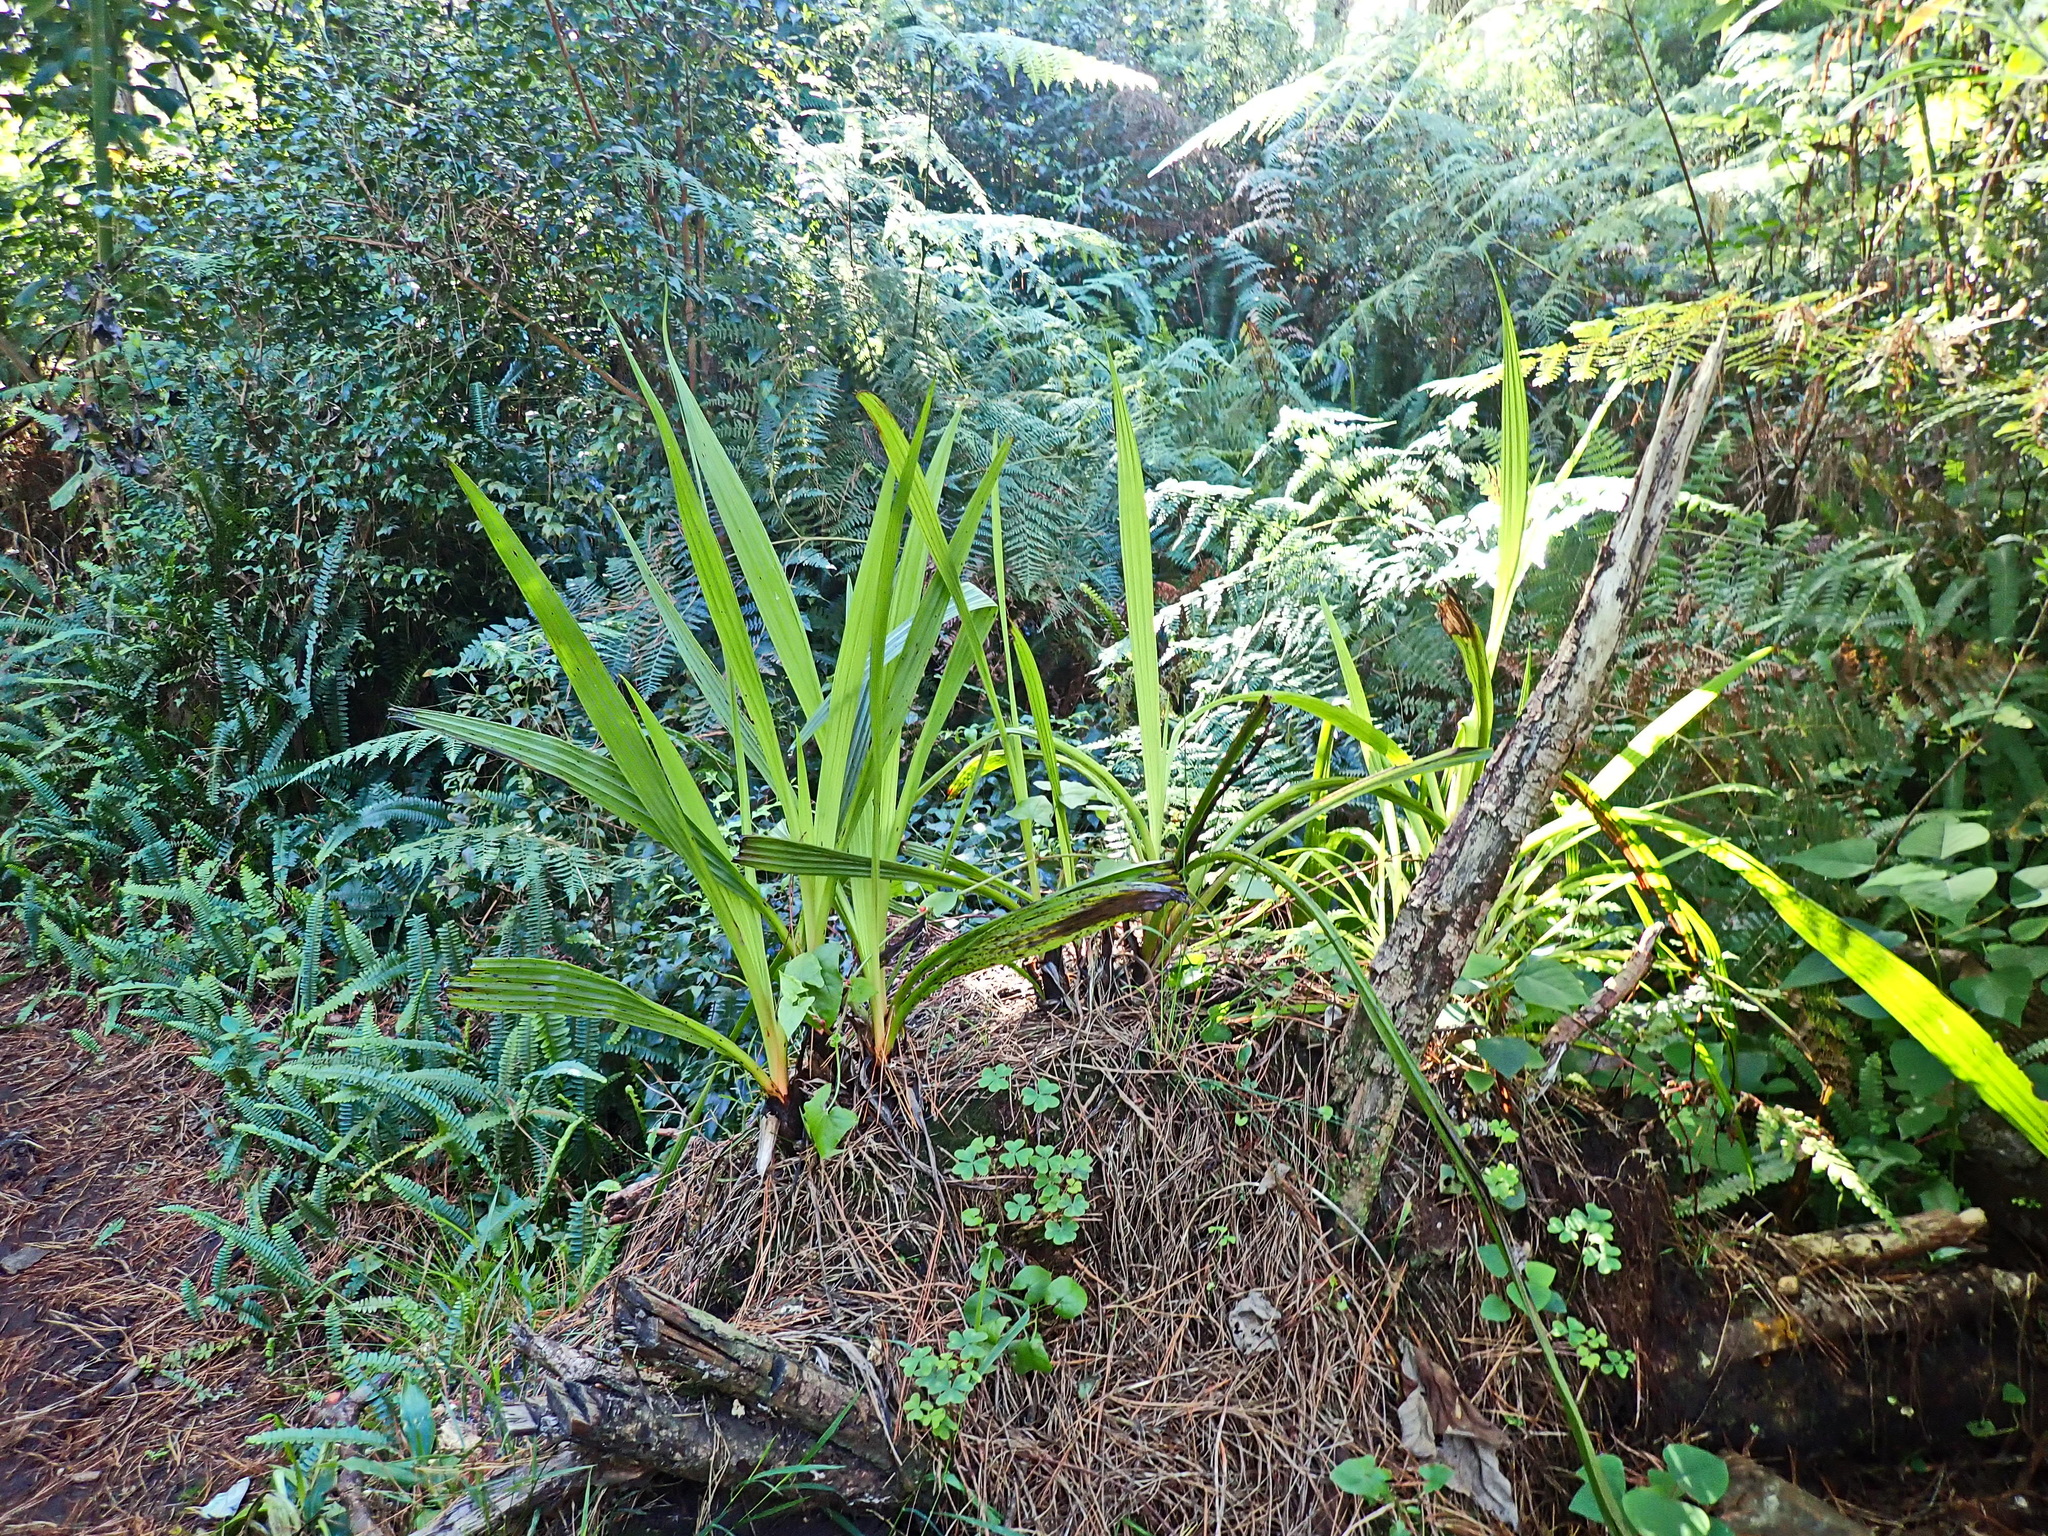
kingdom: Plantae
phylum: Tracheophyta
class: Liliopsida
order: Commelinales
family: Haemodoraceae
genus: Wachendorfia
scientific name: Wachendorfia thyrsiflora
